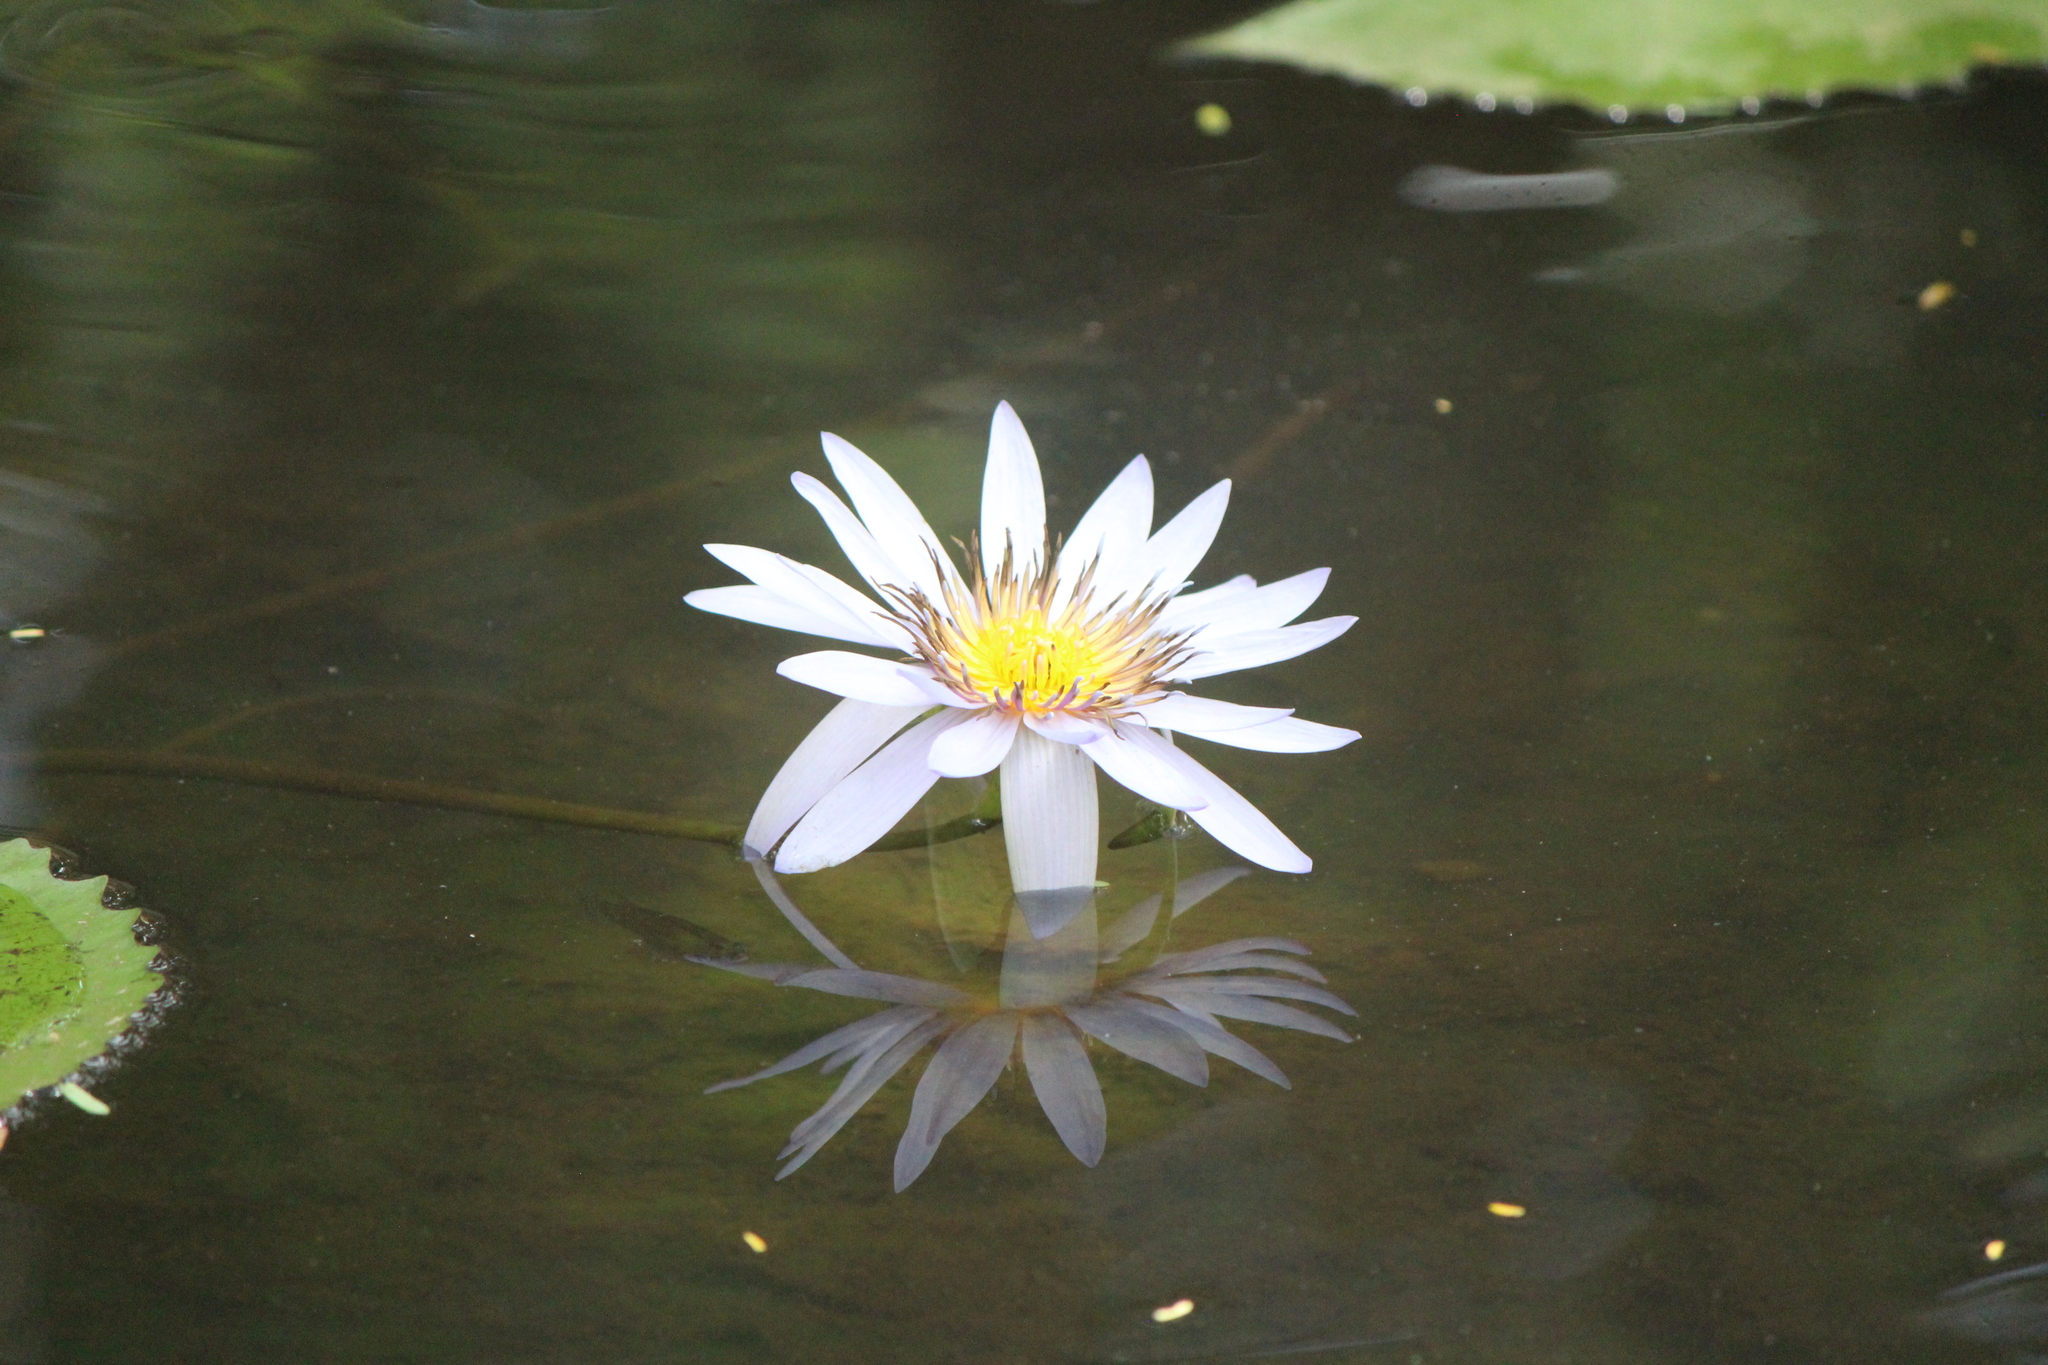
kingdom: Plantae
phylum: Tracheophyta
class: Magnoliopsida
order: Nymphaeales
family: Nymphaeaceae
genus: Nymphaea
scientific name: Nymphaea elegans
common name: Blue water-lily
